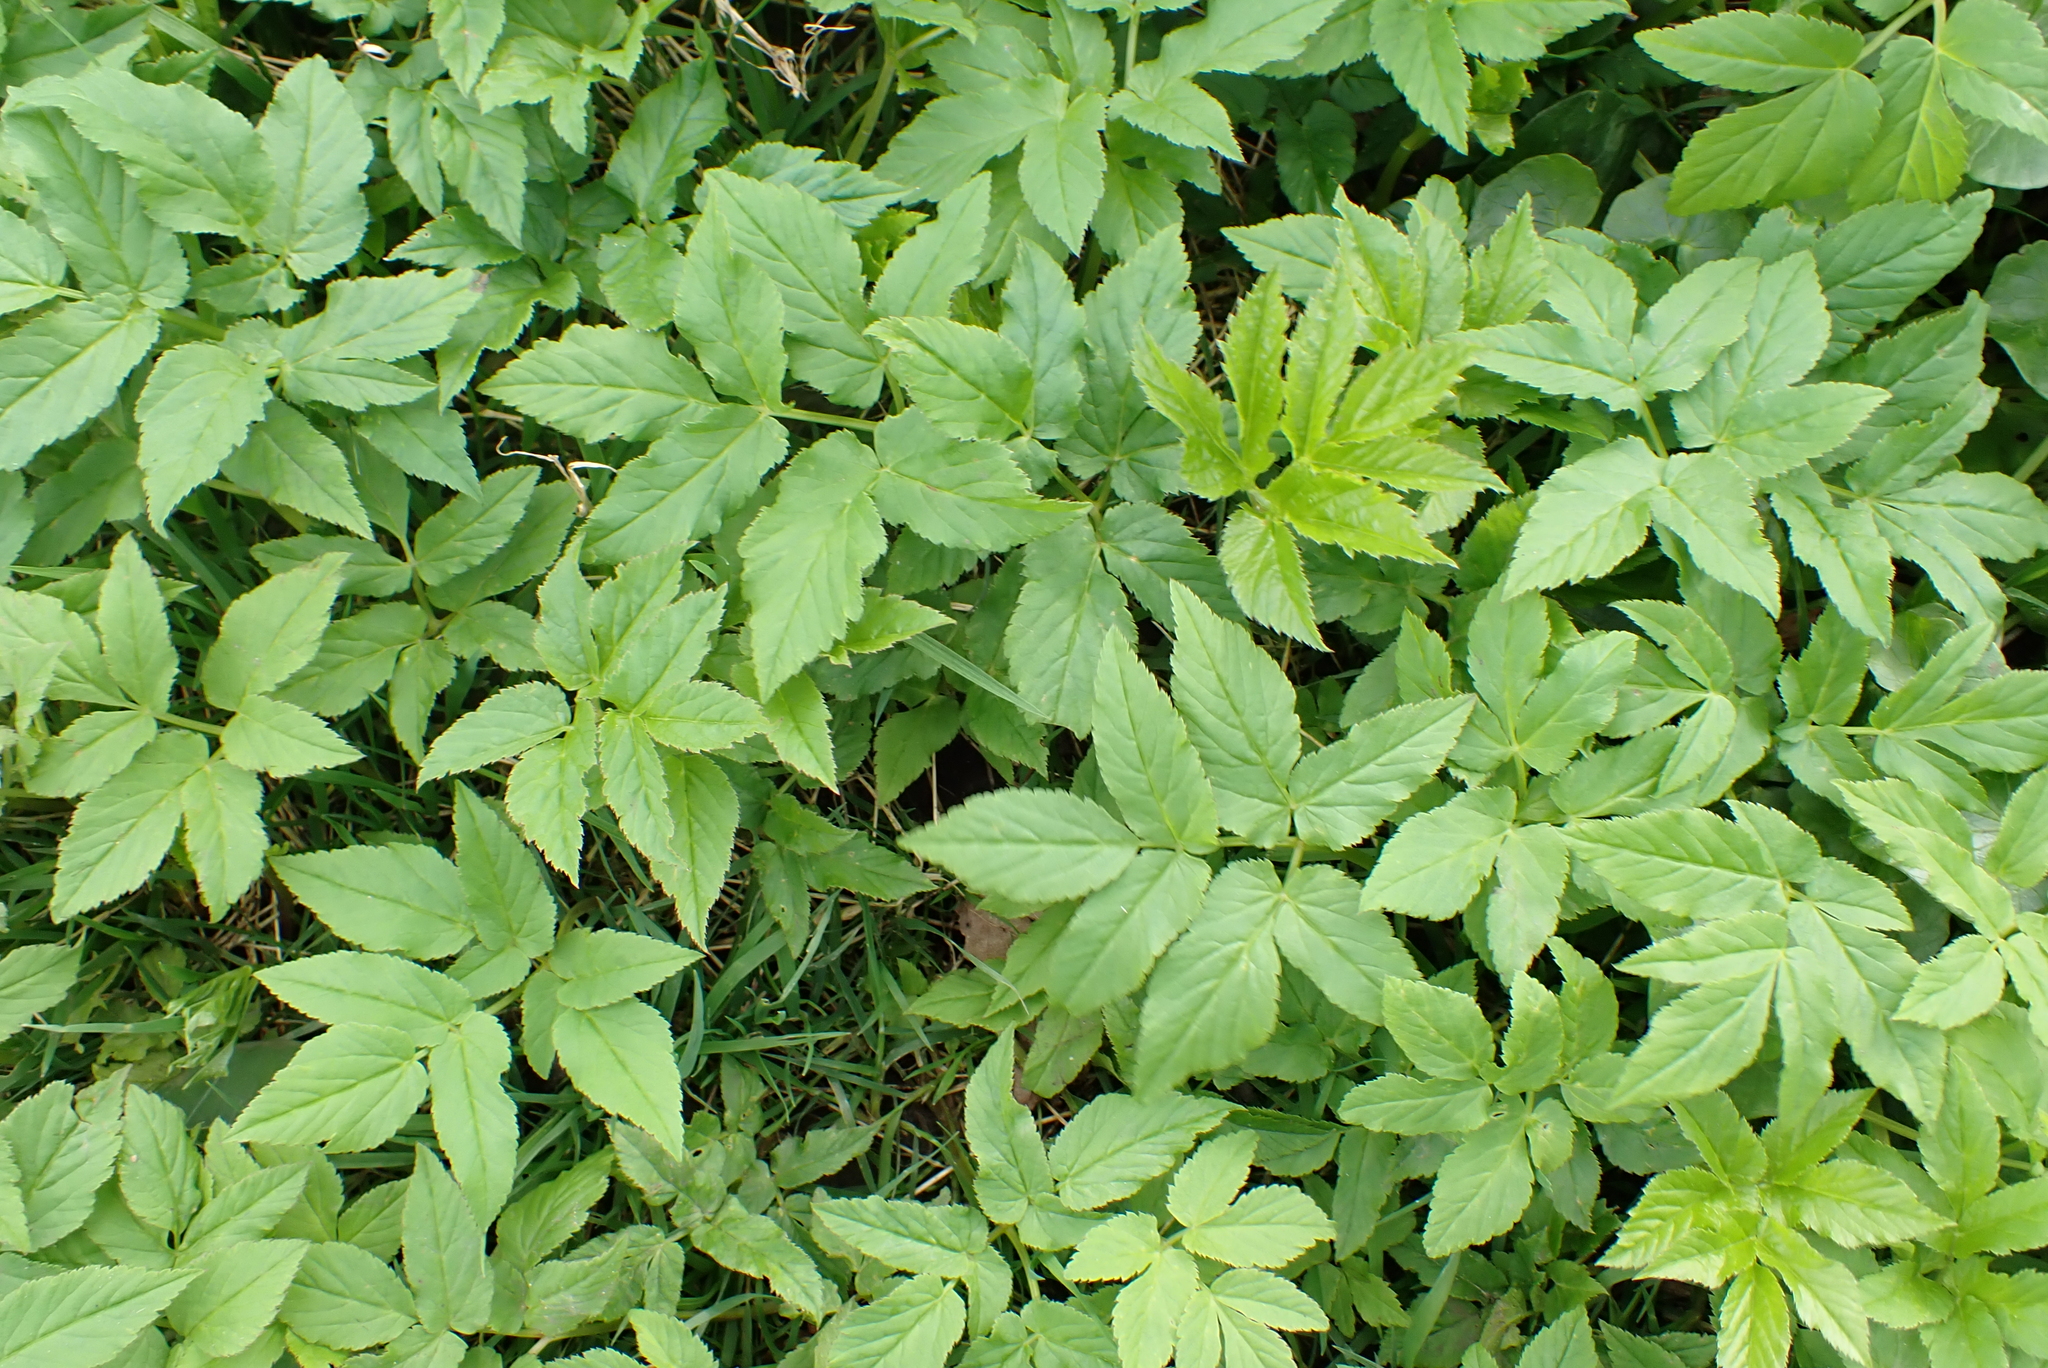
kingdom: Plantae
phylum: Tracheophyta
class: Magnoliopsida
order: Apiales
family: Apiaceae
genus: Aegopodium
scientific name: Aegopodium podagraria
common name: Ground-elder
